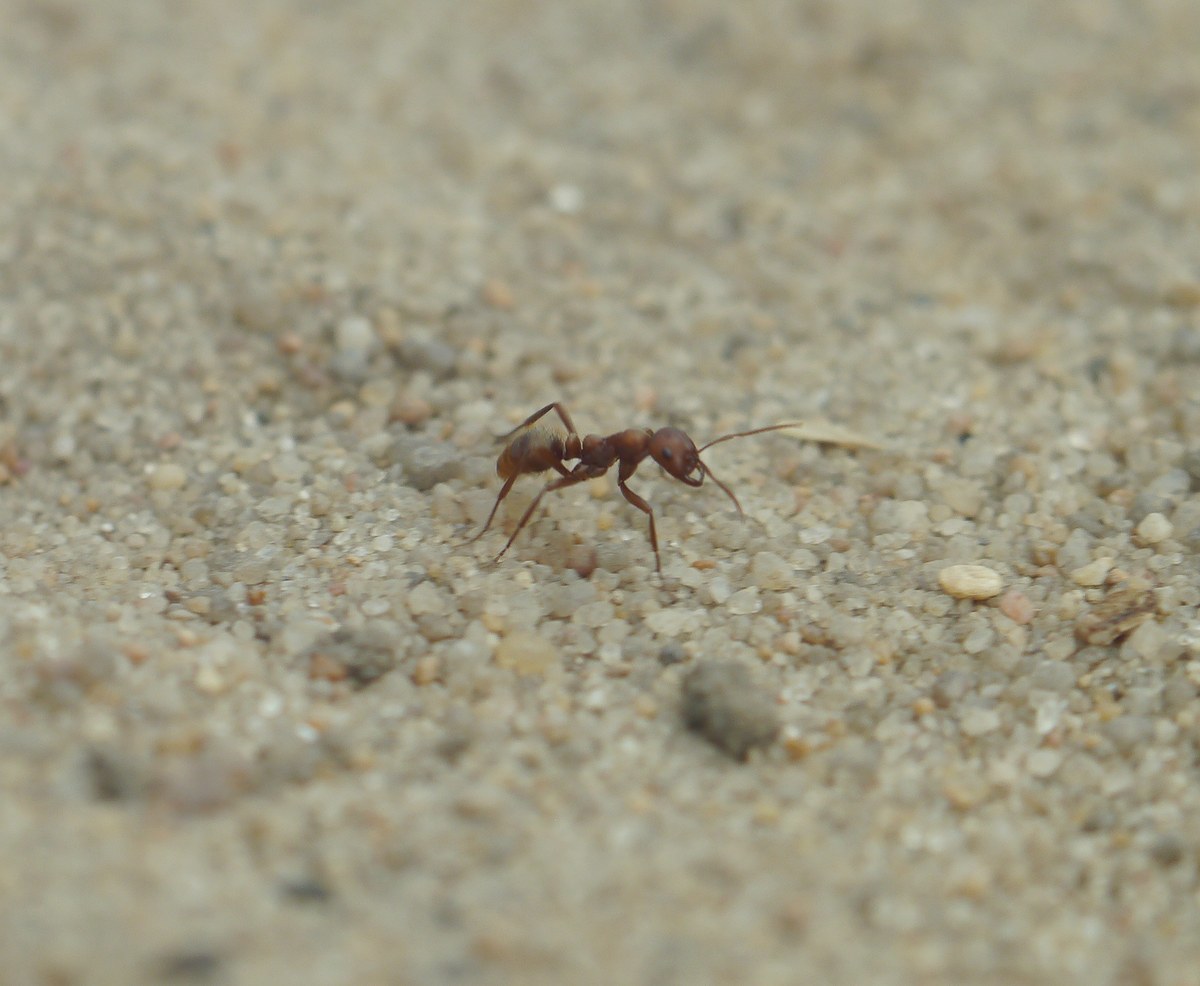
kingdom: Animalia
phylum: Arthropoda
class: Insecta
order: Hymenoptera
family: Formicidae
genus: Polyergus
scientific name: Polyergus rufescens
